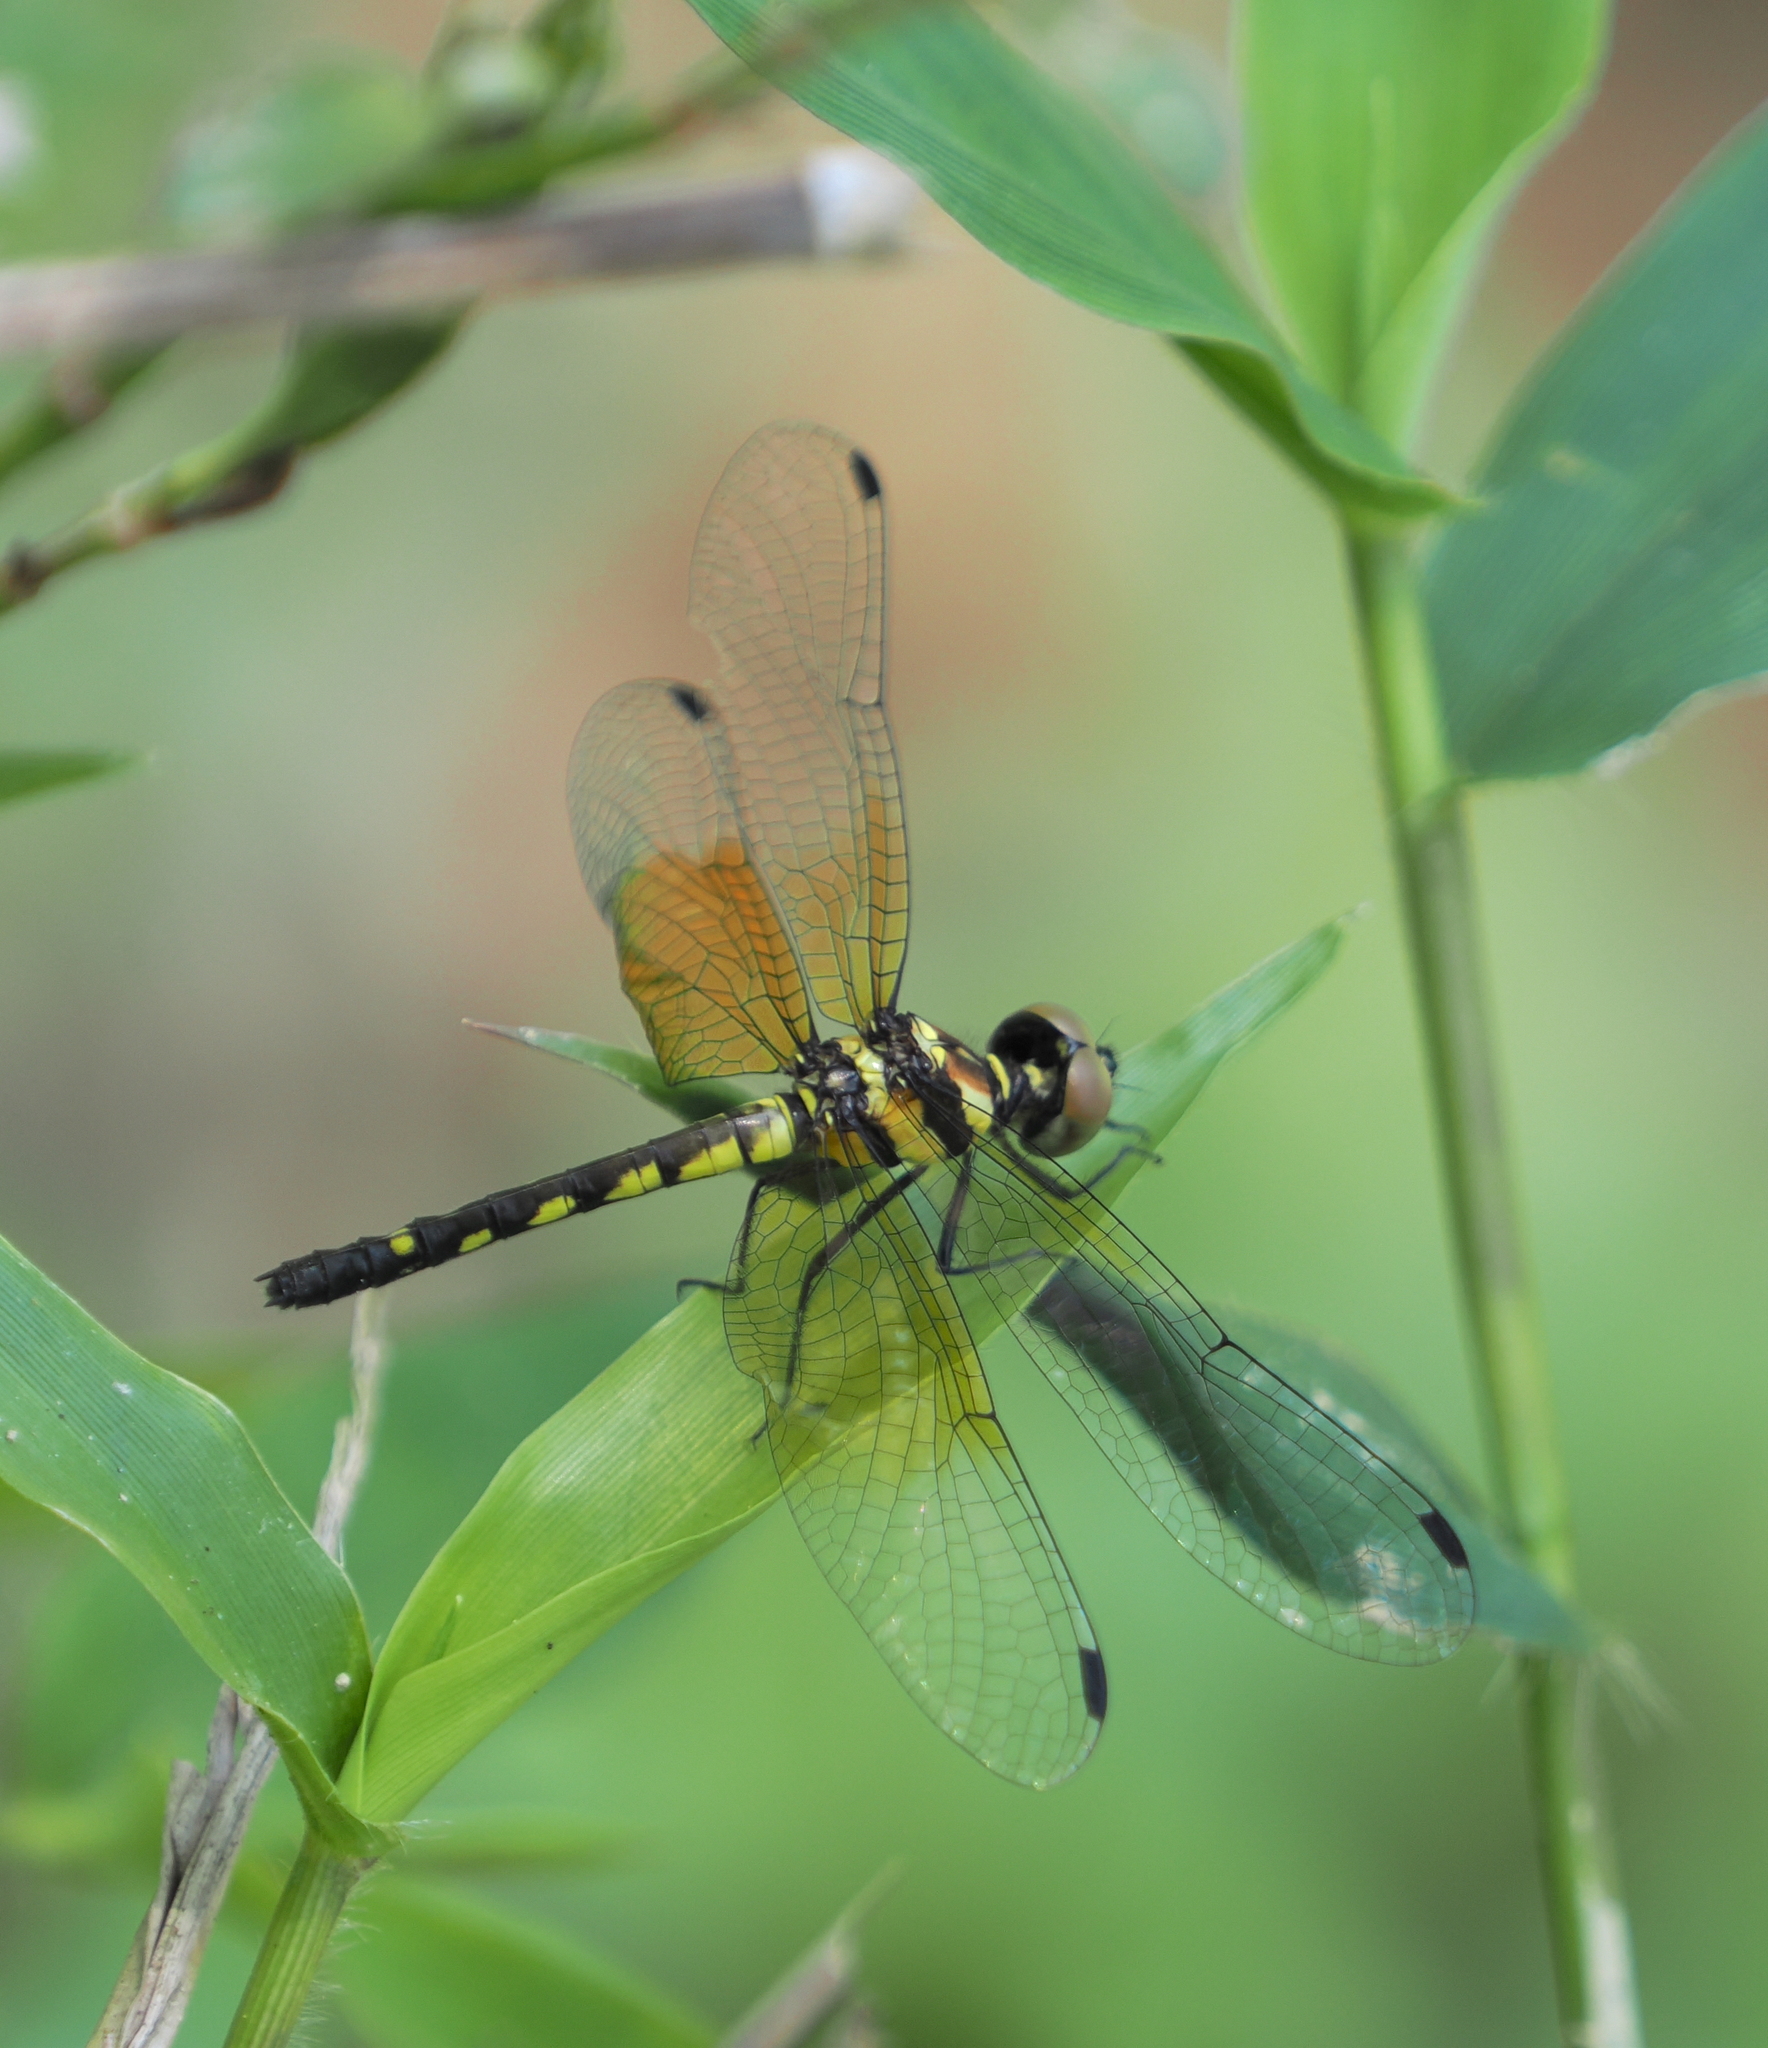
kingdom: Animalia
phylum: Arthropoda
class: Insecta
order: Odonata
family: Libellulidae
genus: Tetrathemis
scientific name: Tetrathemis platyptera
